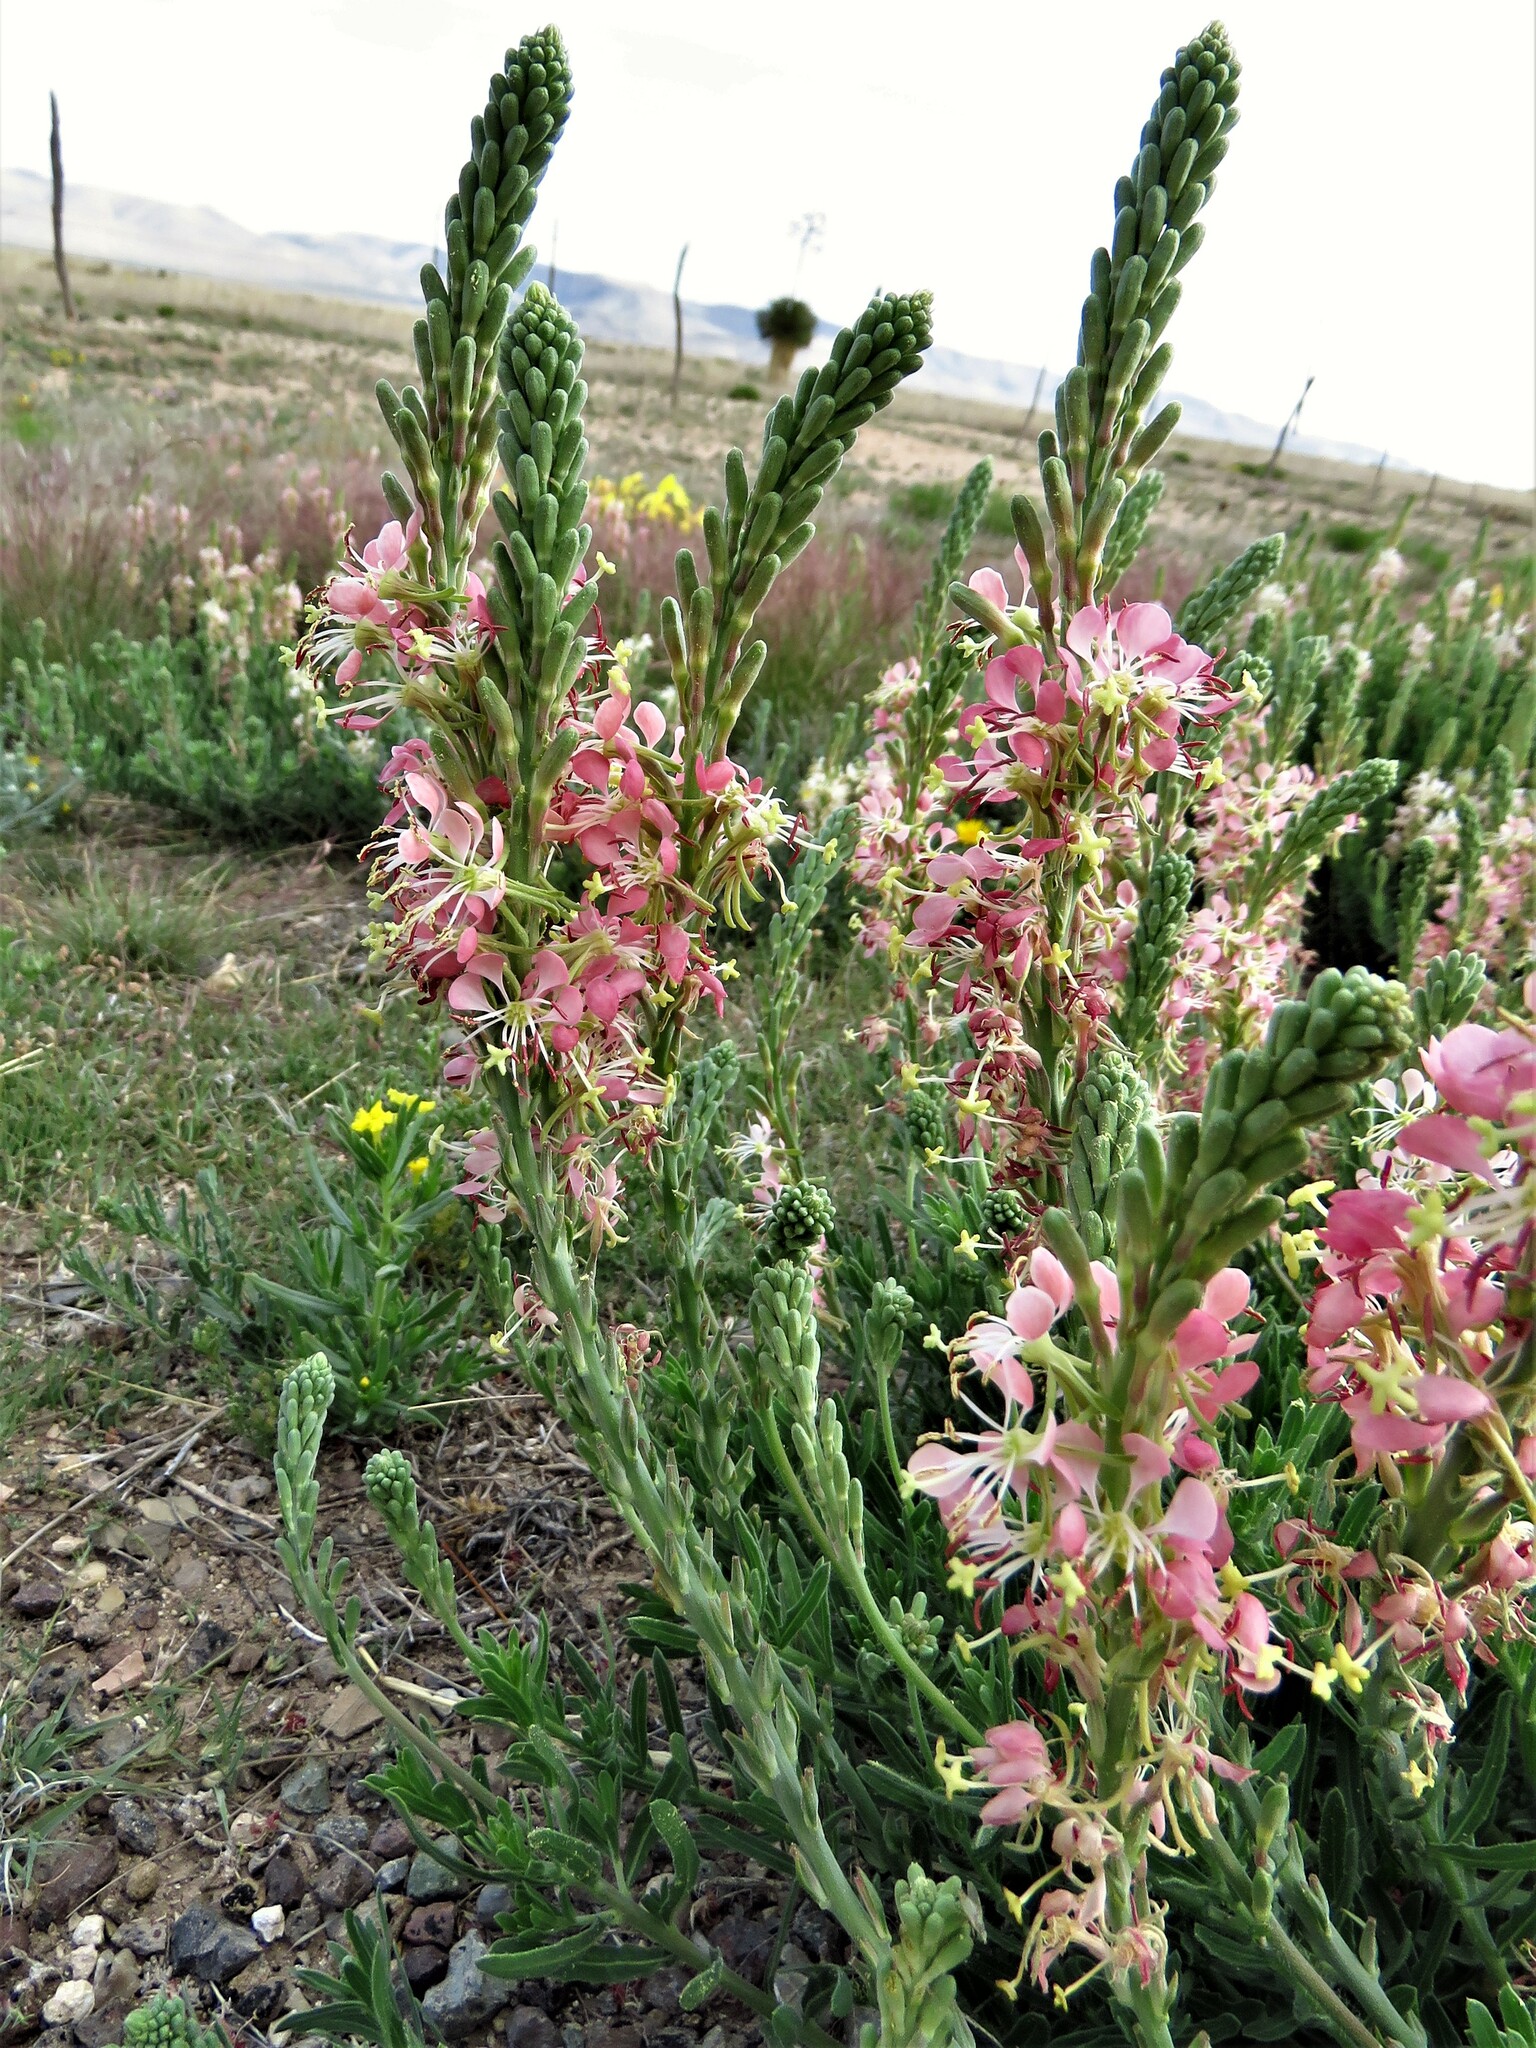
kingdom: Plantae
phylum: Tracheophyta
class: Magnoliopsida
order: Myrtales
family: Onagraceae
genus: Oenothera
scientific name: Oenothera suffrutescens
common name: Scarlet beeblossom
